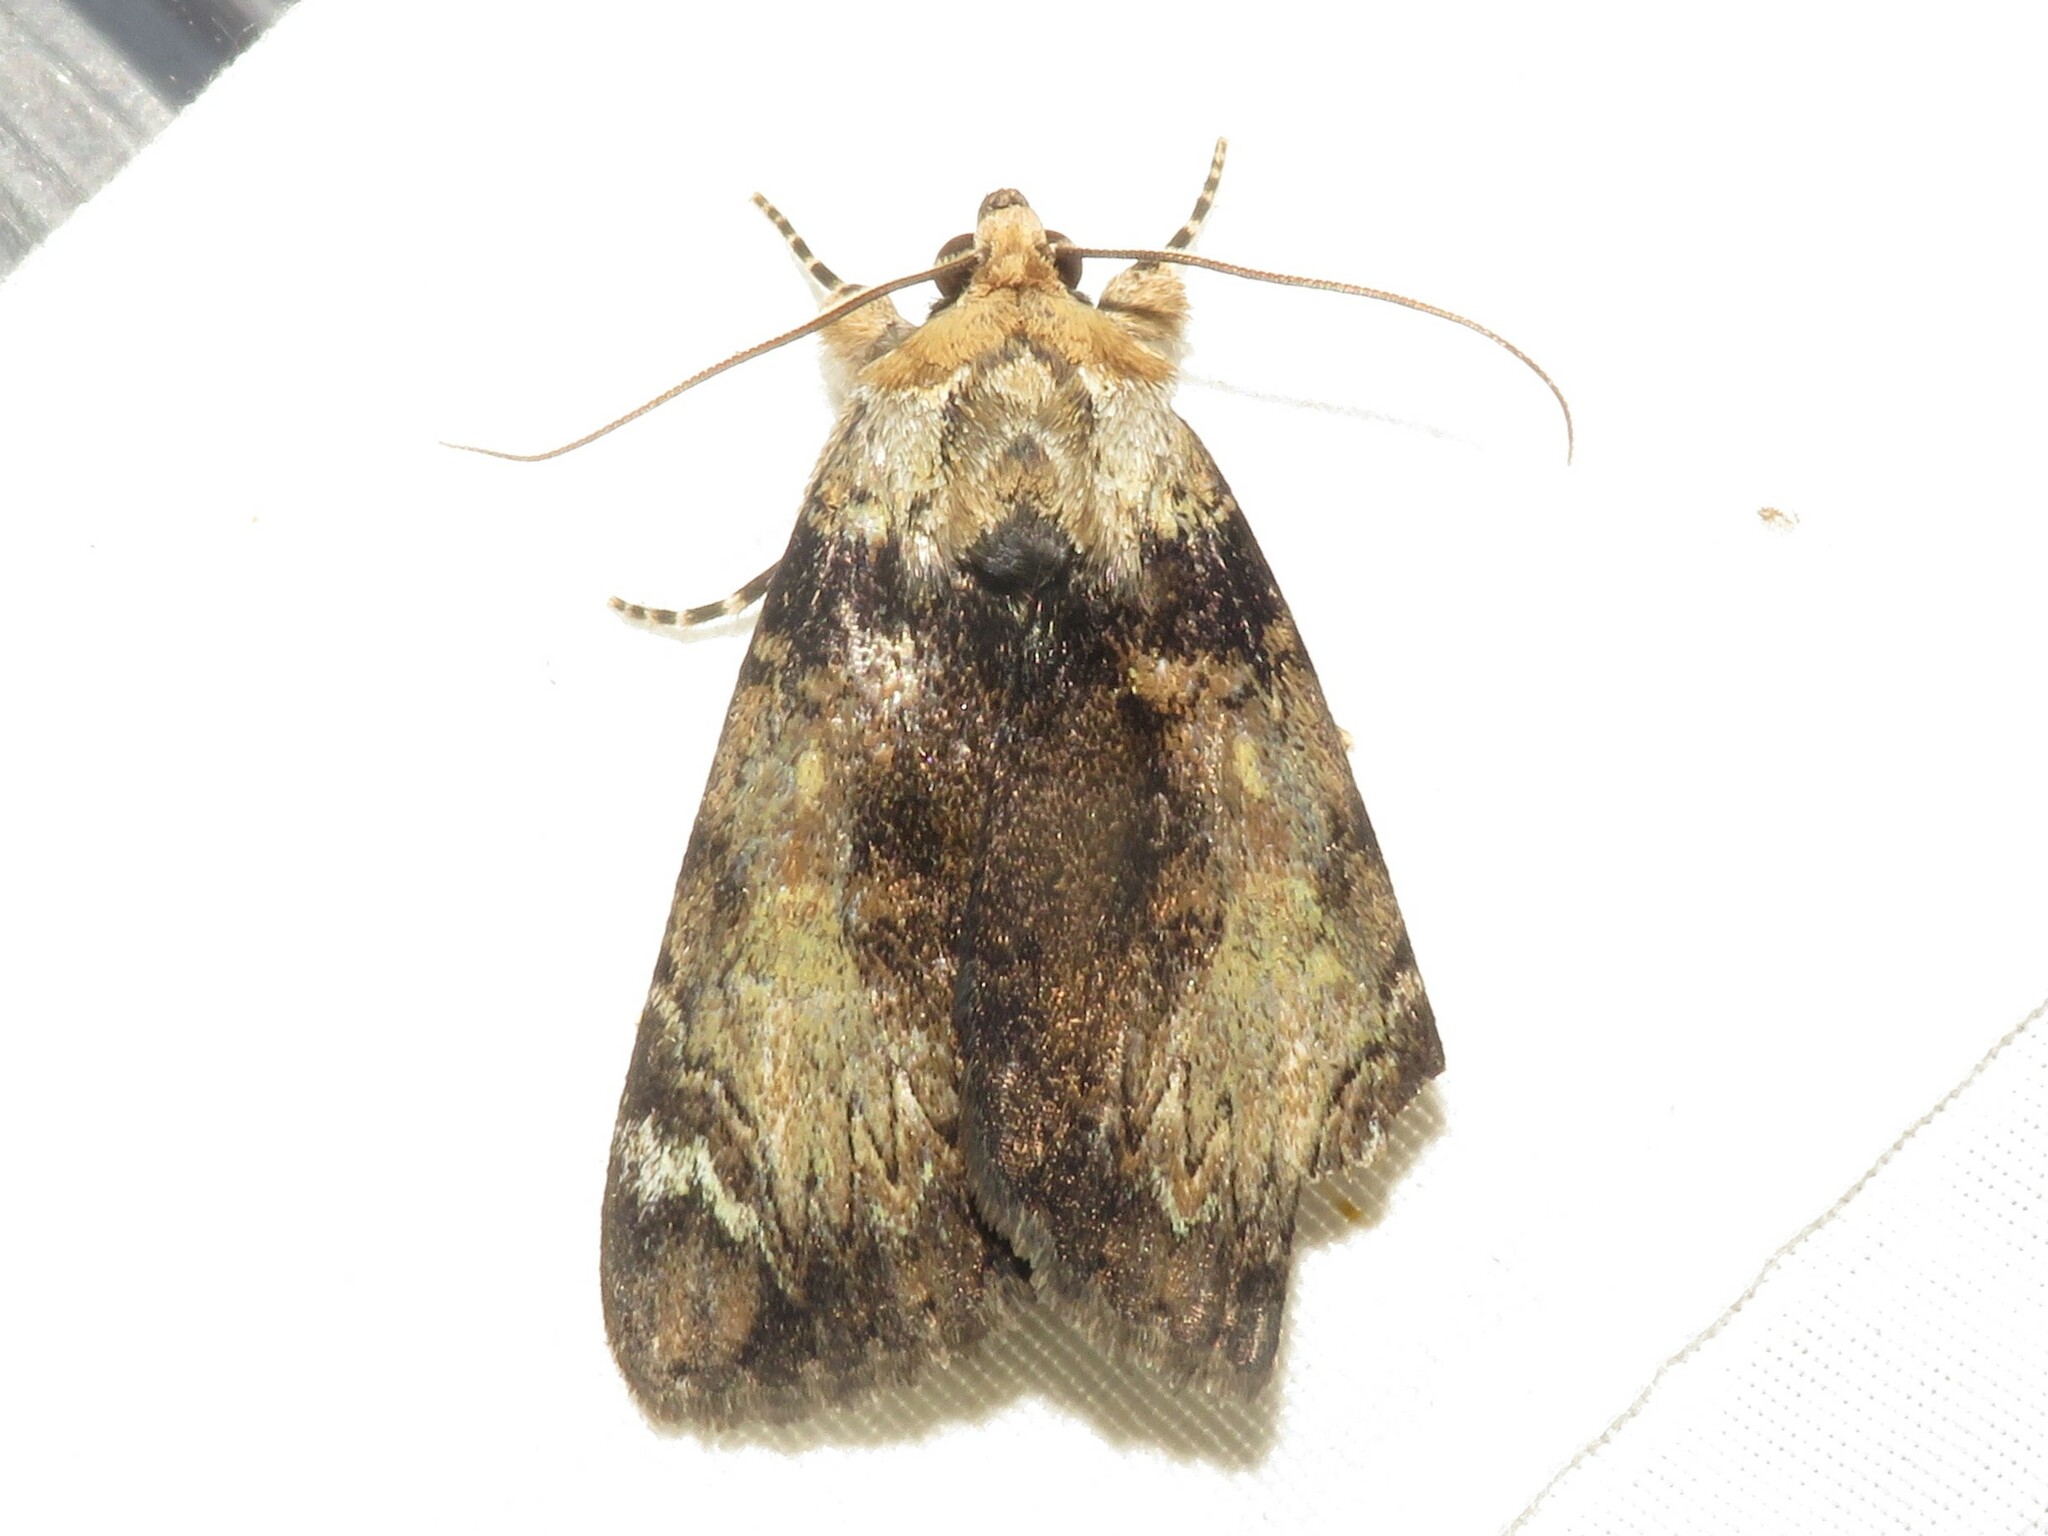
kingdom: Animalia
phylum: Arthropoda
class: Insecta
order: Lepidoptera
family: Erebidae
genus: Catocala
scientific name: Catocala minuta
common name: Little underwing
